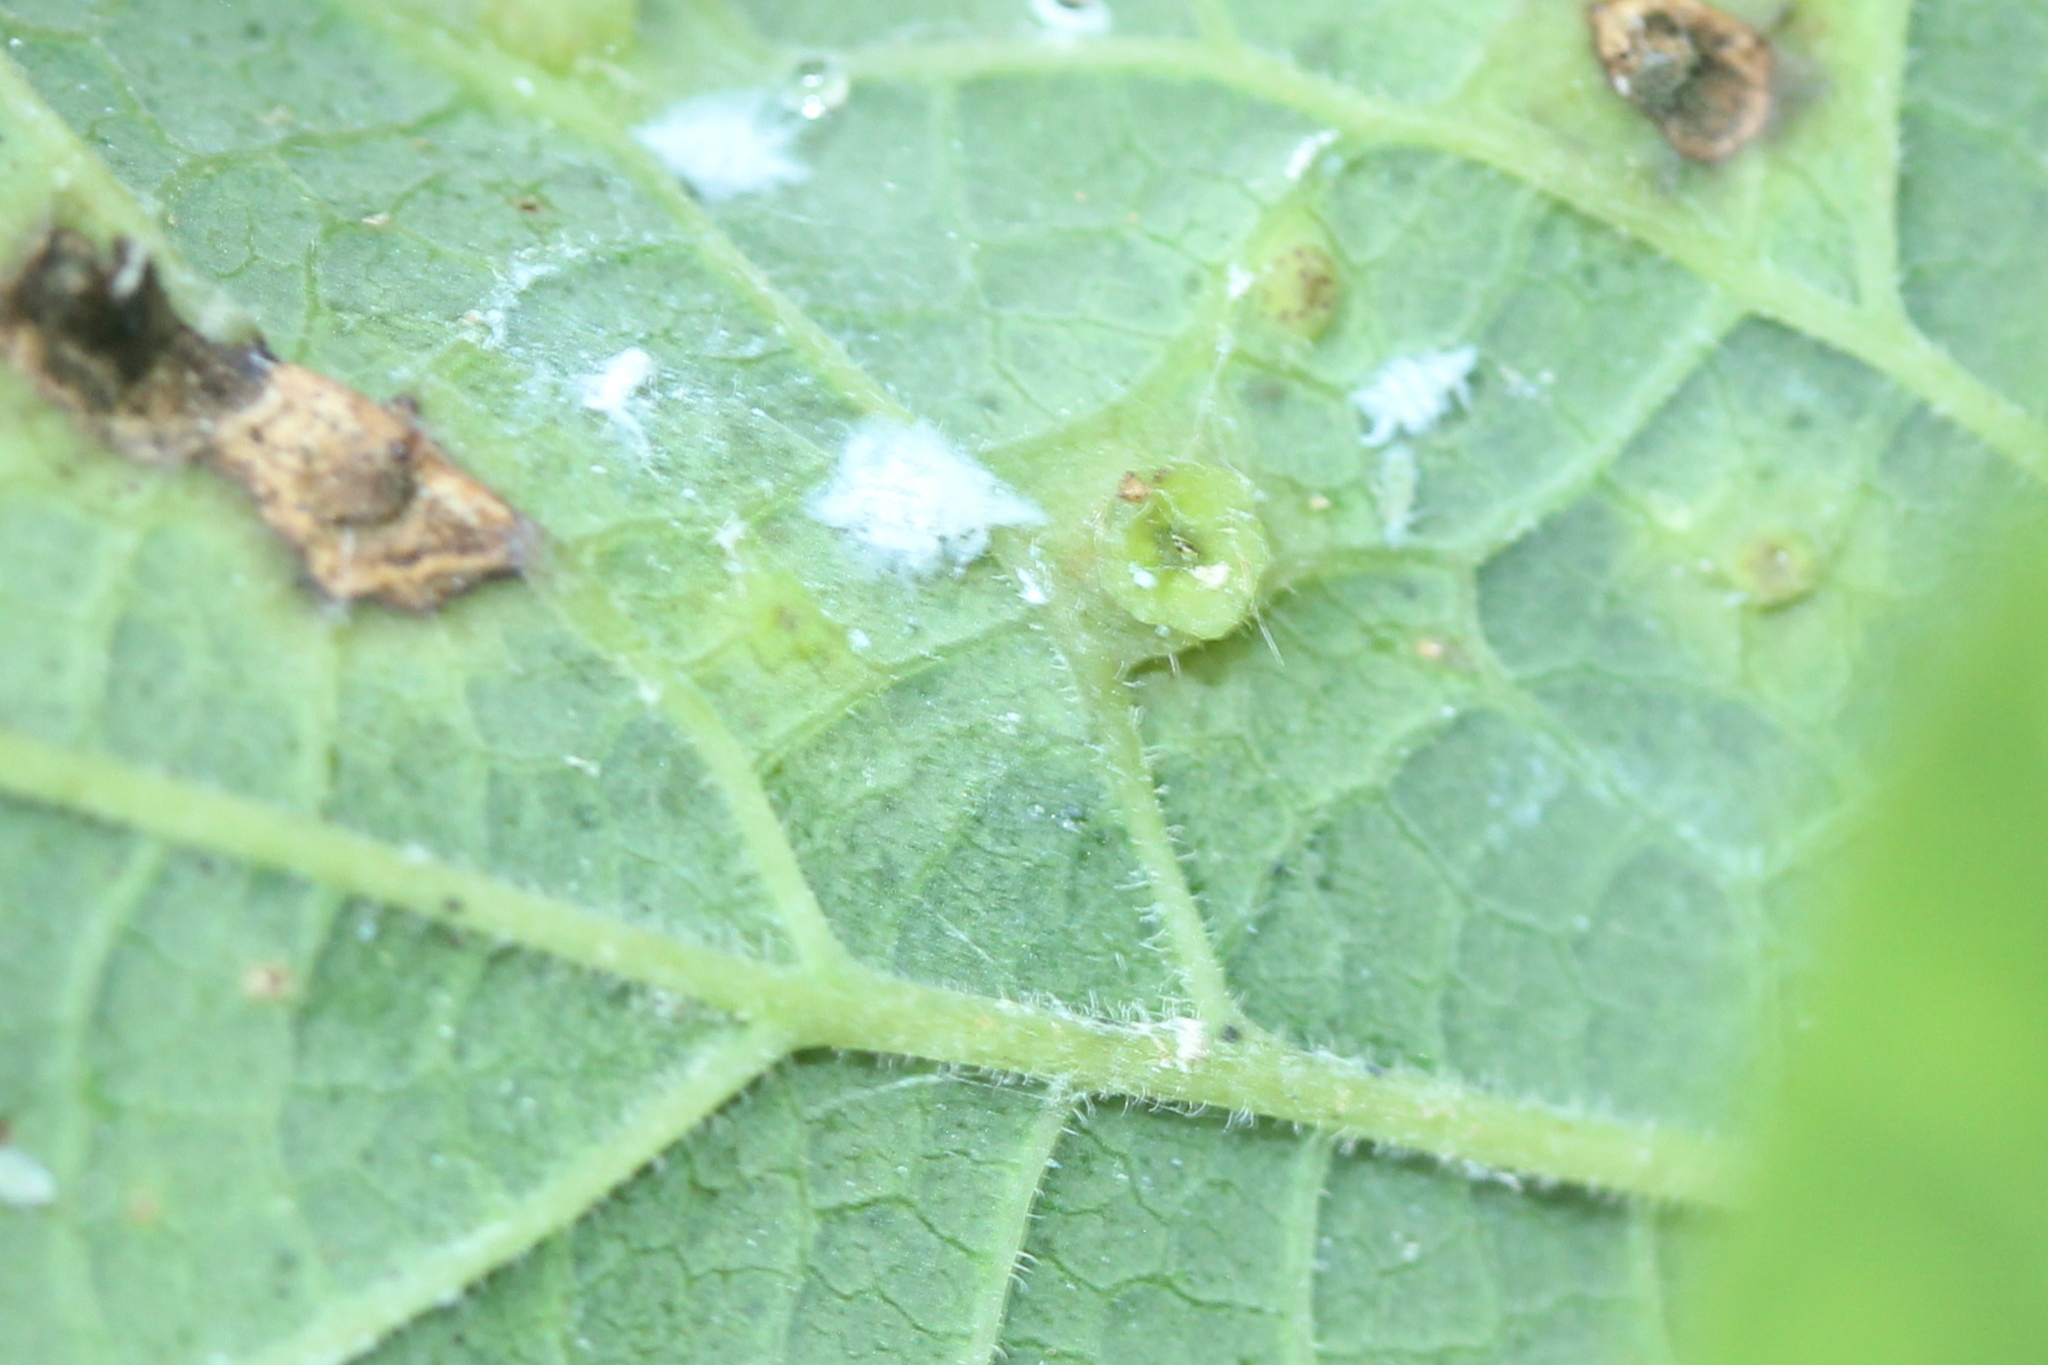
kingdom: Animalia
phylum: Arthropoda
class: Insecta
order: Hemiptera
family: Aphalaridae
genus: Pachypsylla
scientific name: Pachypsylla celtidisasterisca
